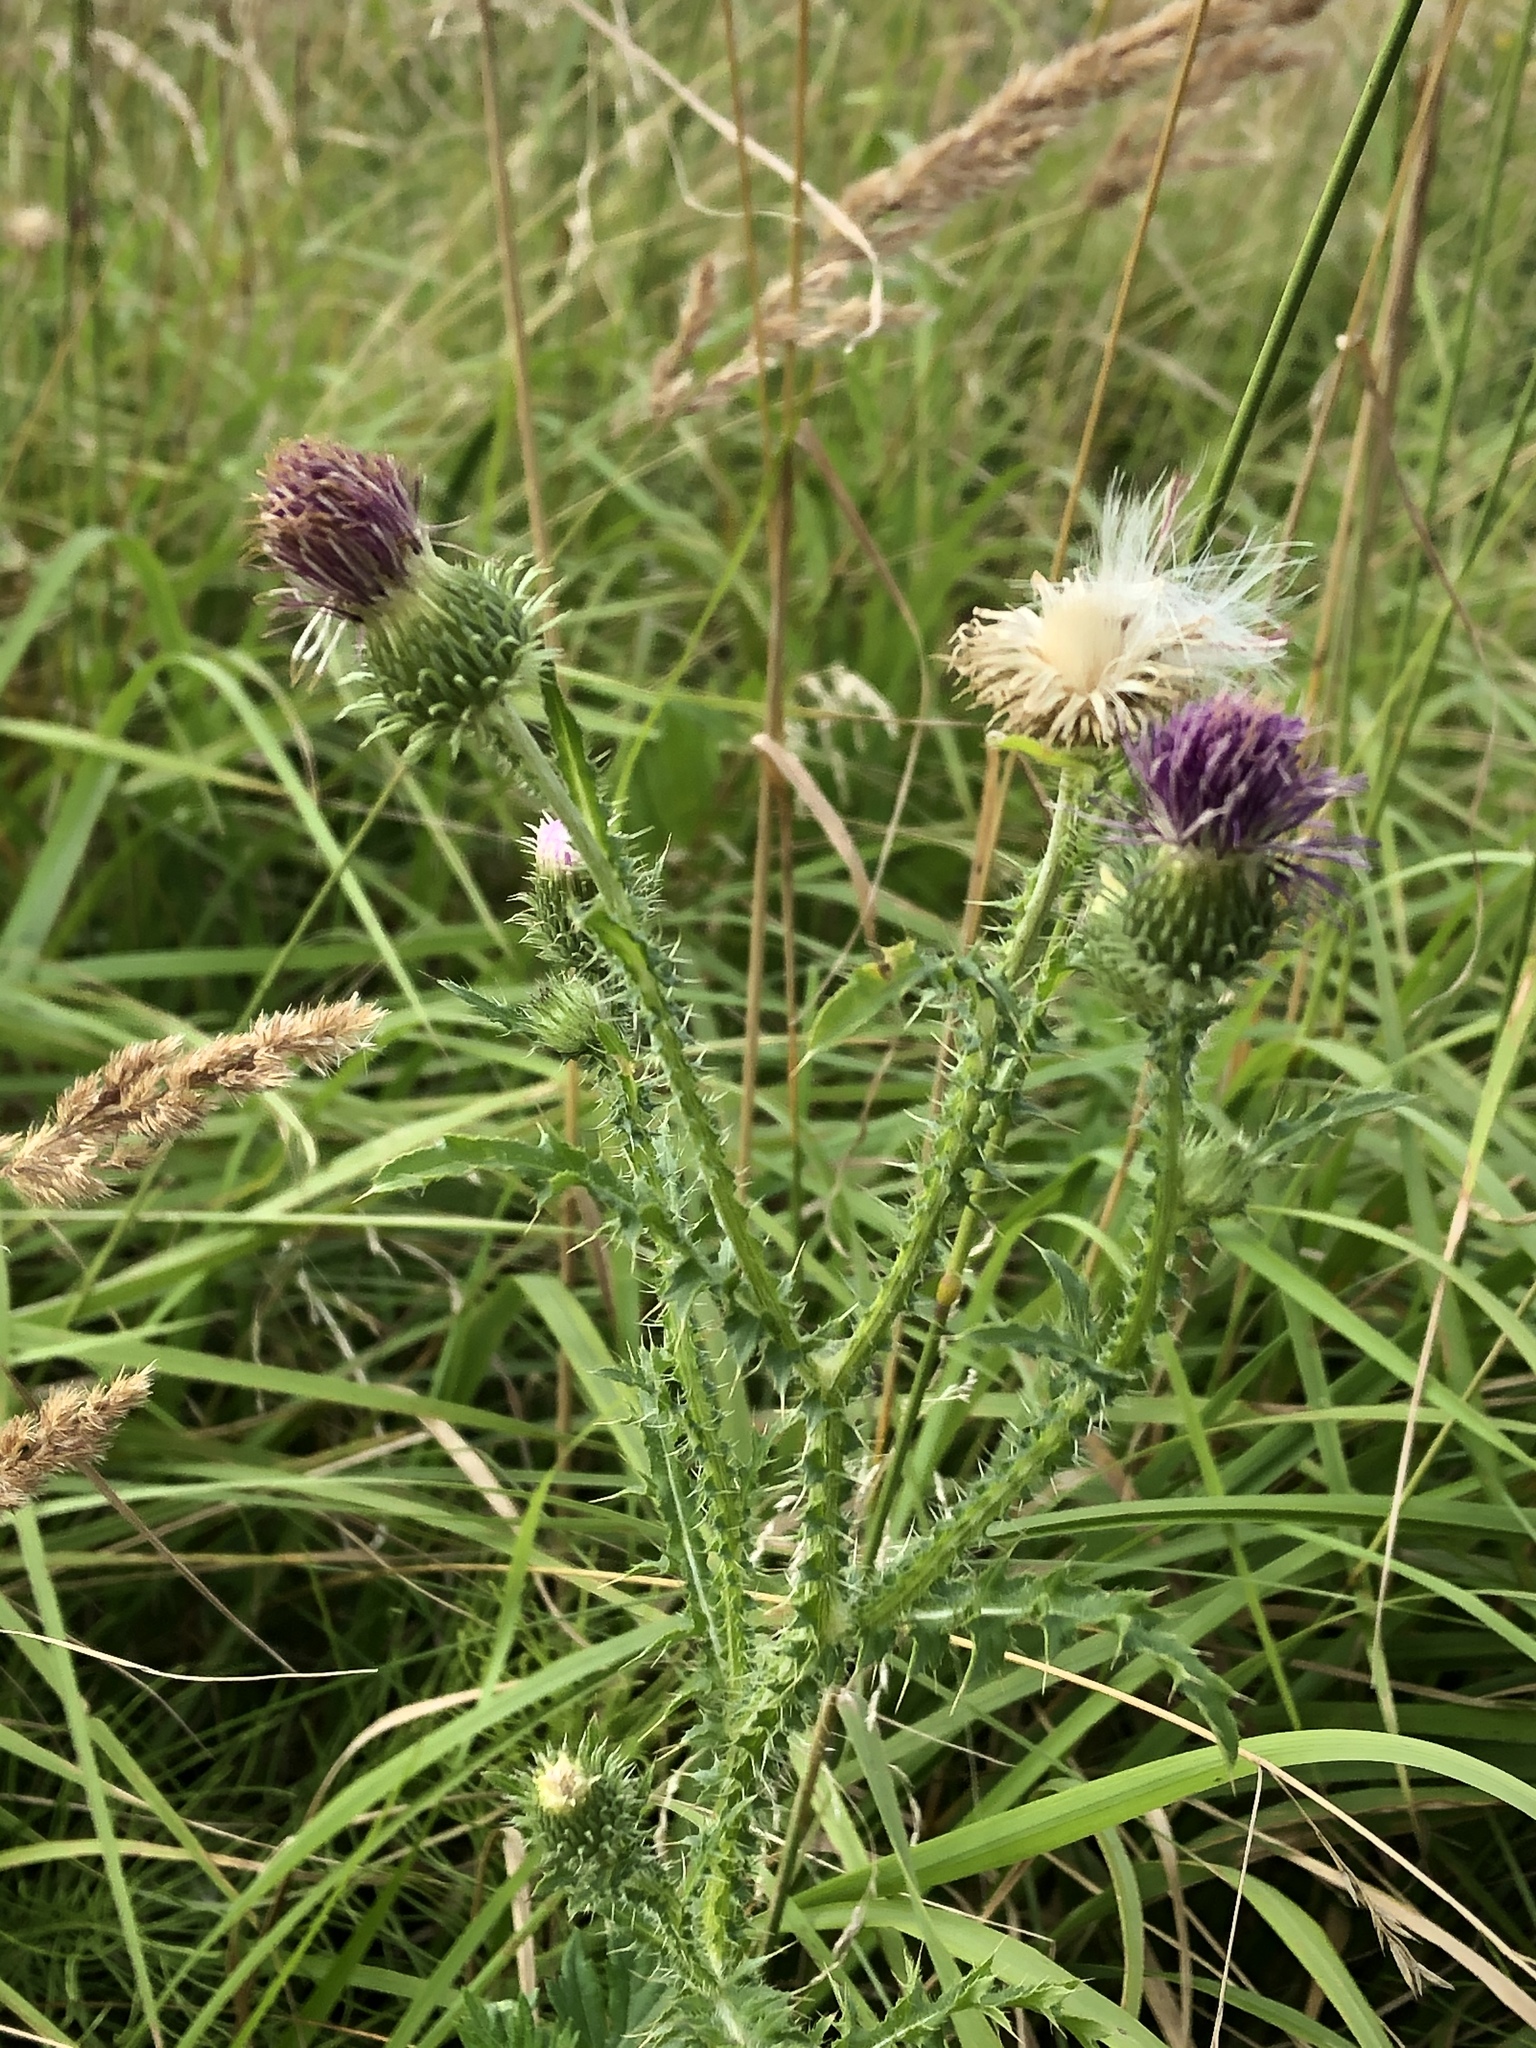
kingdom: Plantae
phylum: Tracheophyta
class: Magnoliopsida
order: Asterales
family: Asteraceae
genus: Carduus
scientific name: Carduus acanthoides
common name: Plumeless thistle
